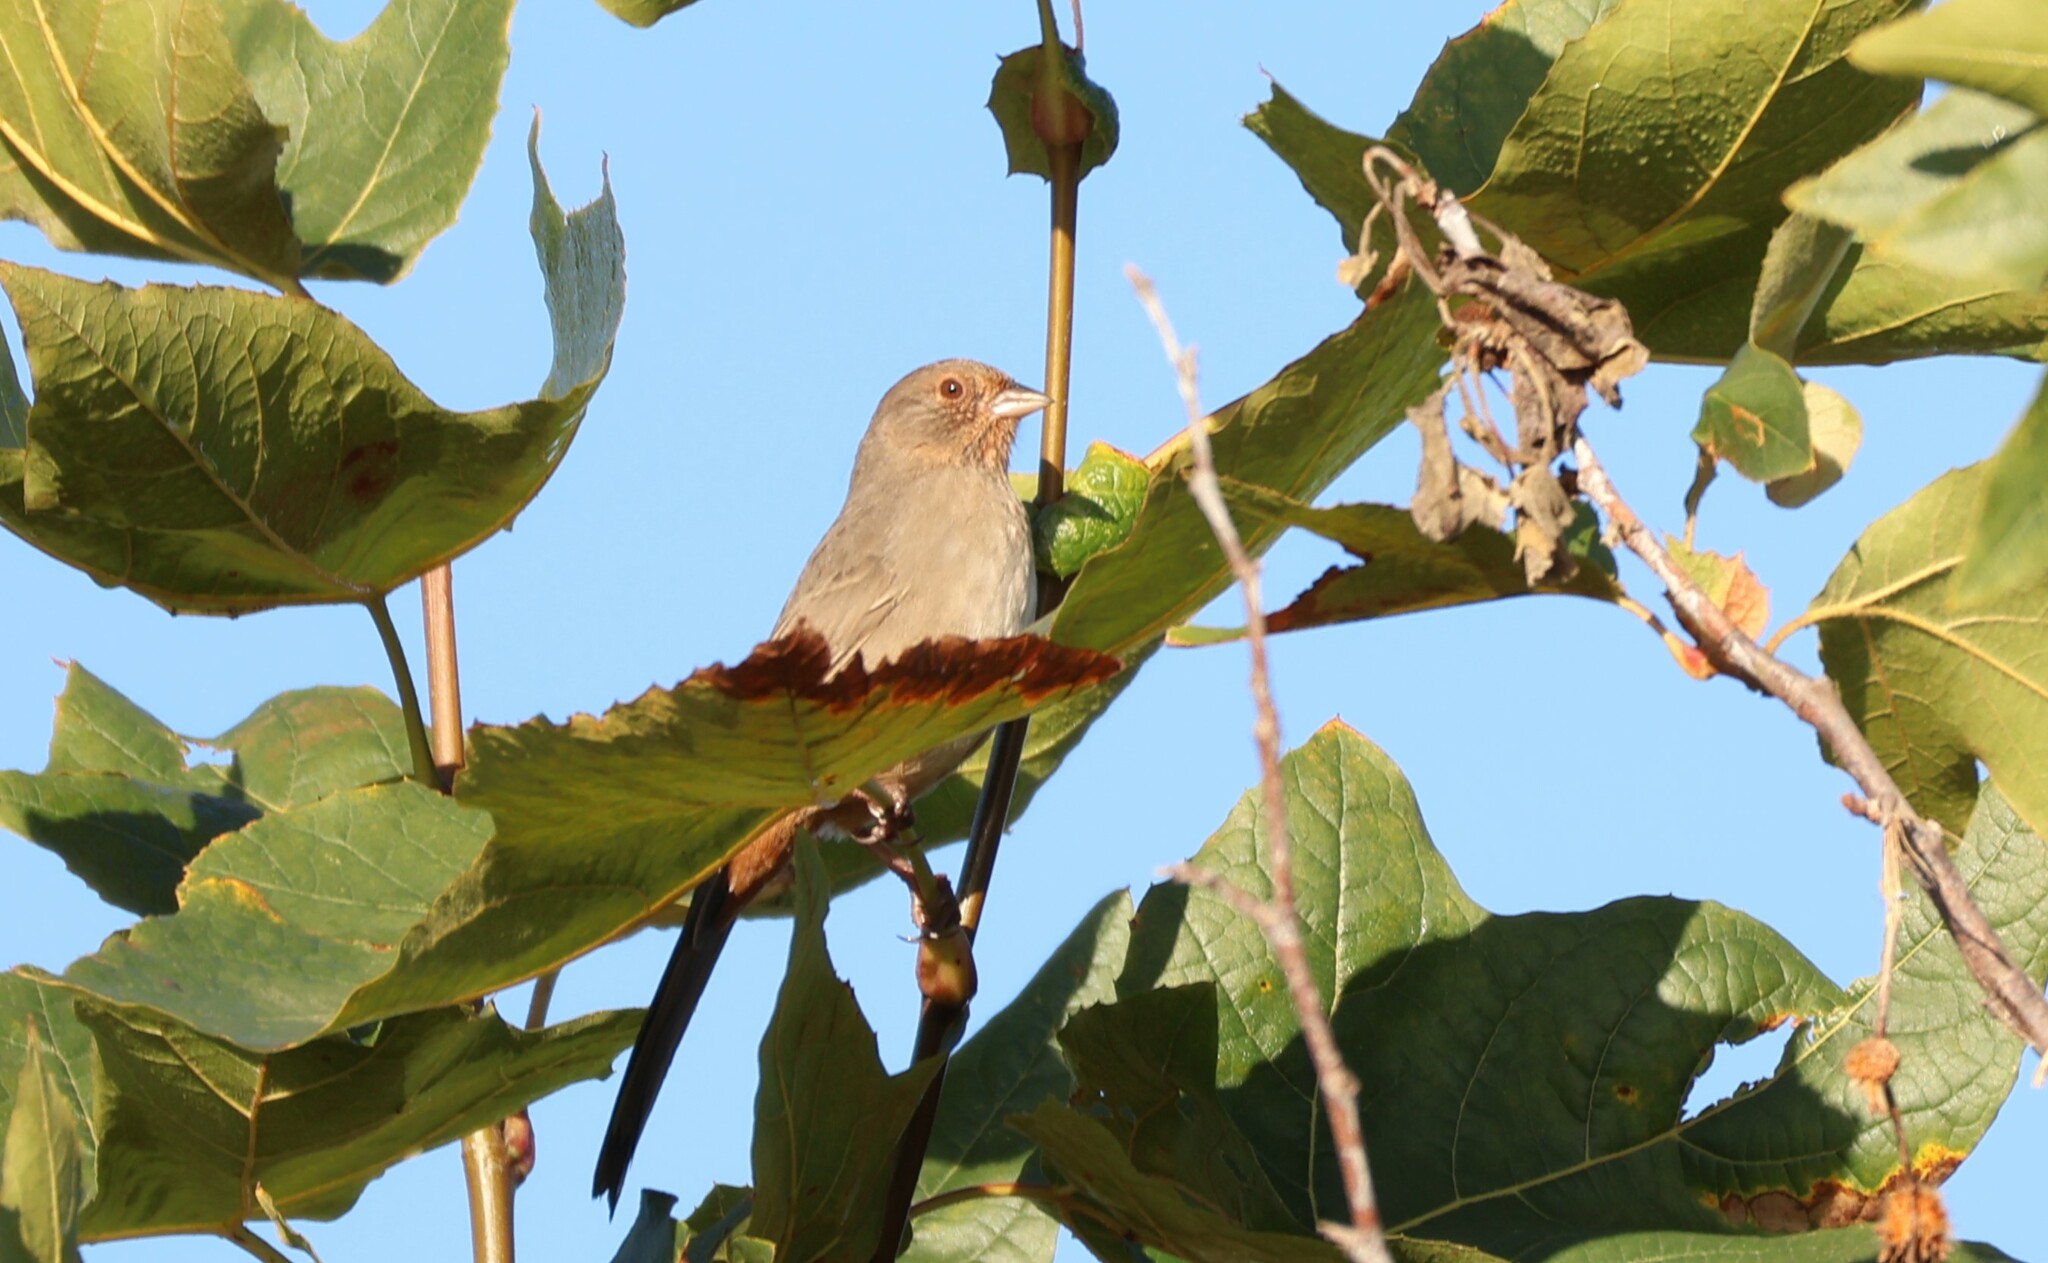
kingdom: Animalia
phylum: Chordata
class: Aves
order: Passeriformes
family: Passerellidae
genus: Melozone
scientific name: Melozone crissalis
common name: California towhee
